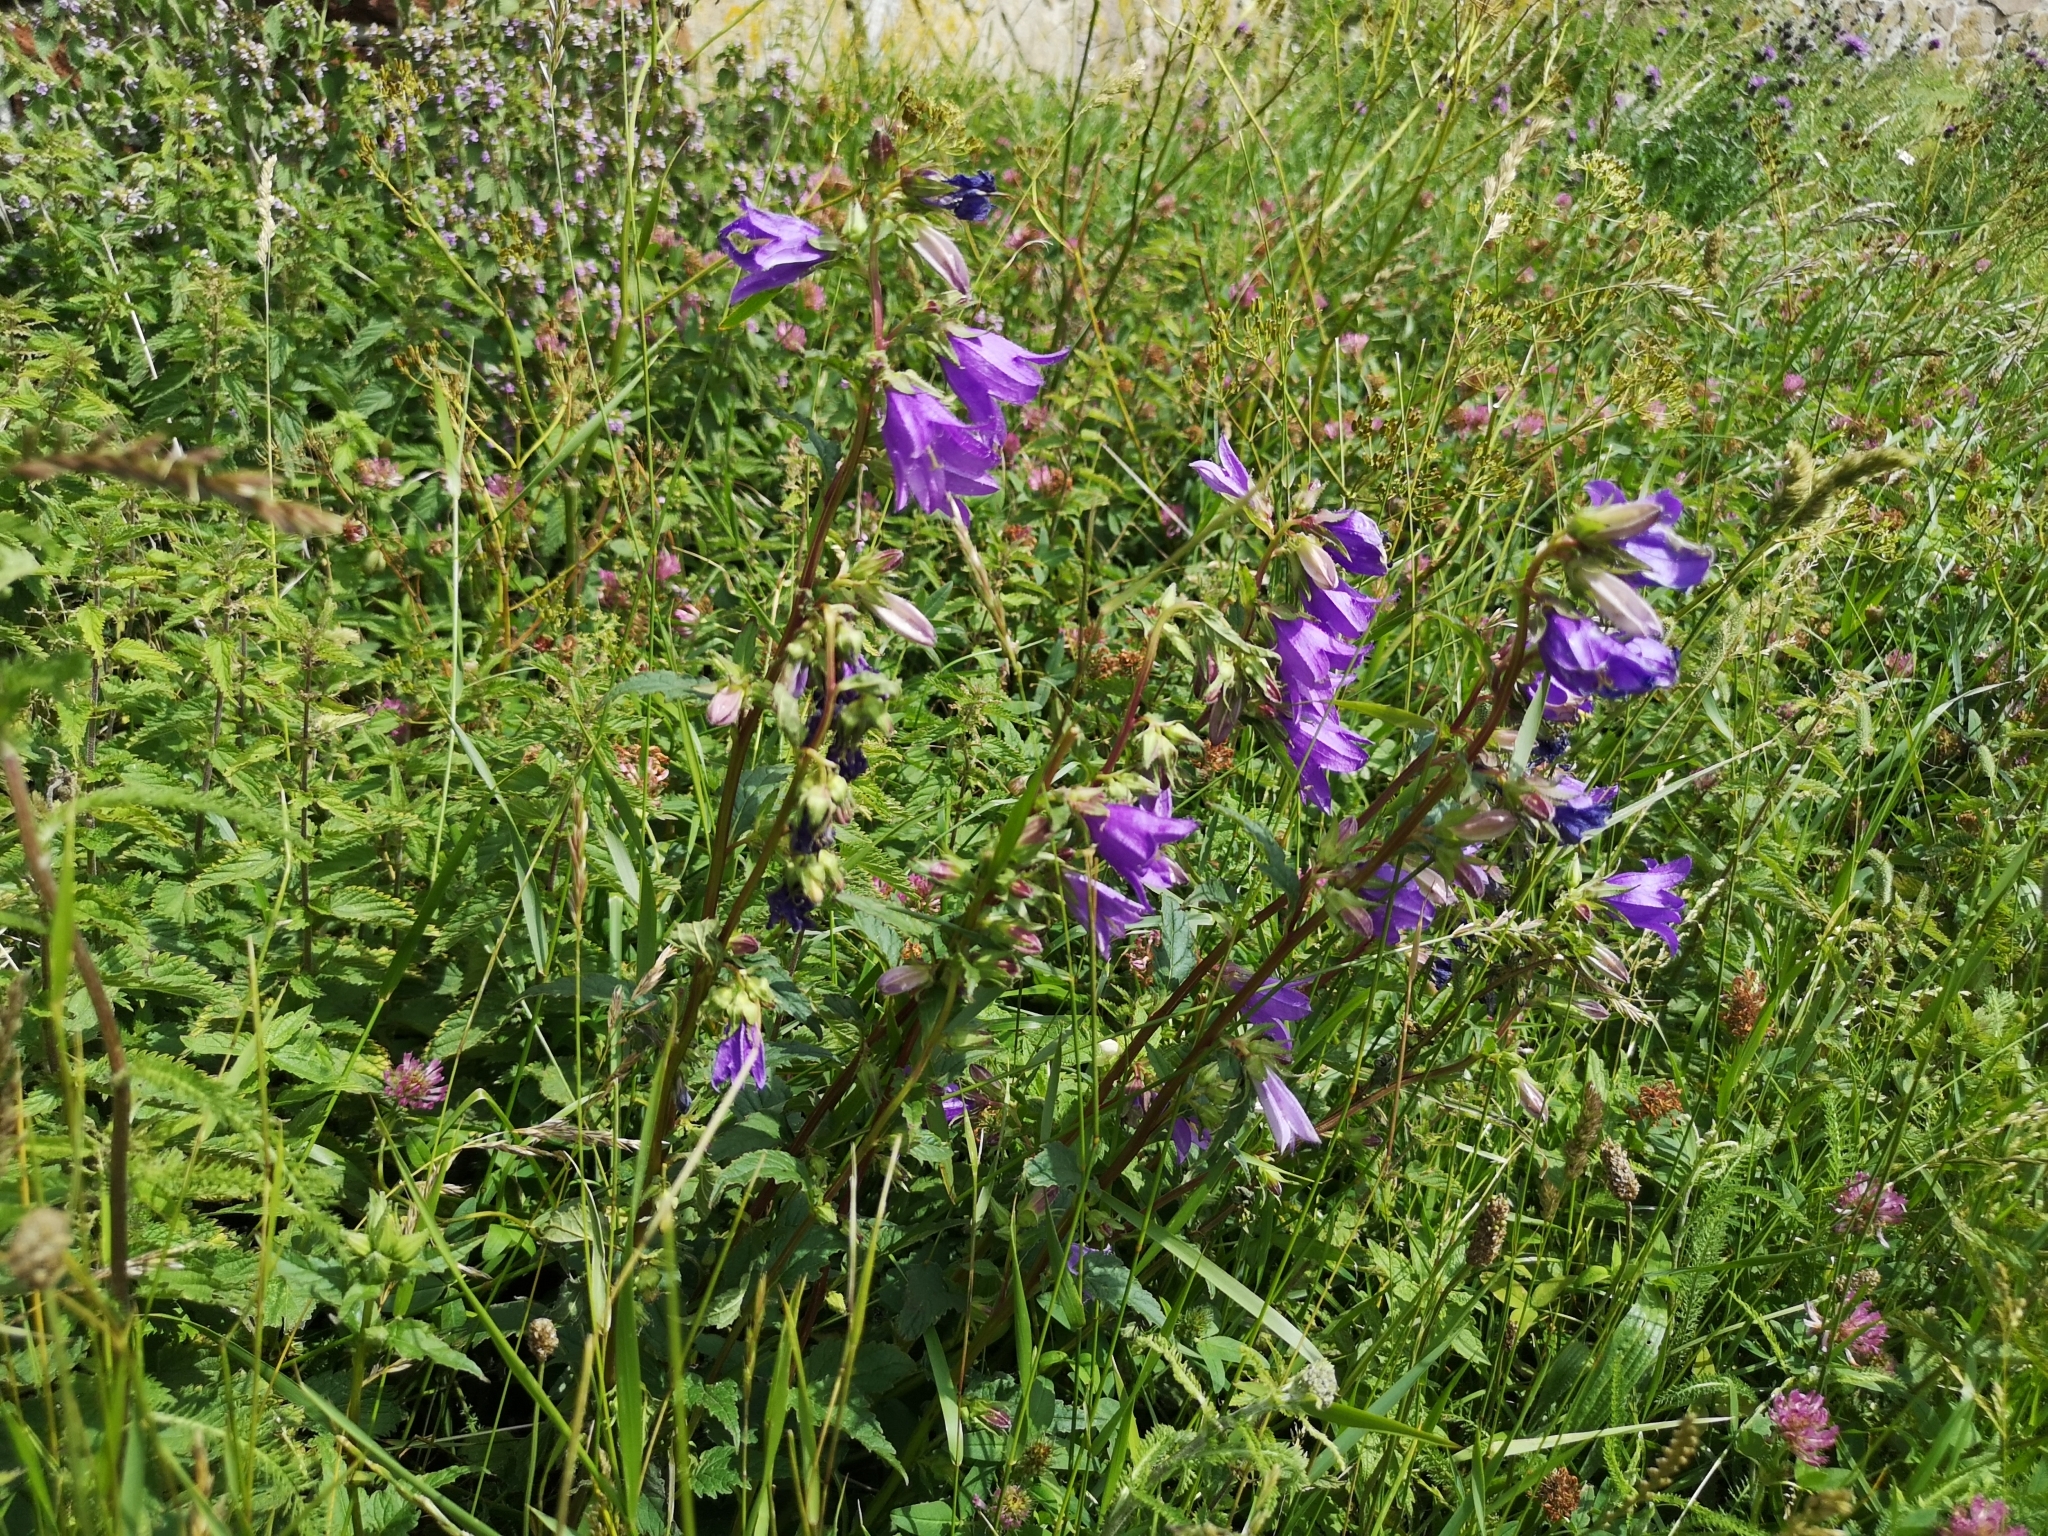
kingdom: Plantae
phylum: Tracheophyta
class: Magnoliopsida
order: Asterales
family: Campanulaceae
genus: Campanula
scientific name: Campanula trachelium
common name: Nettle-leaved bellflower
